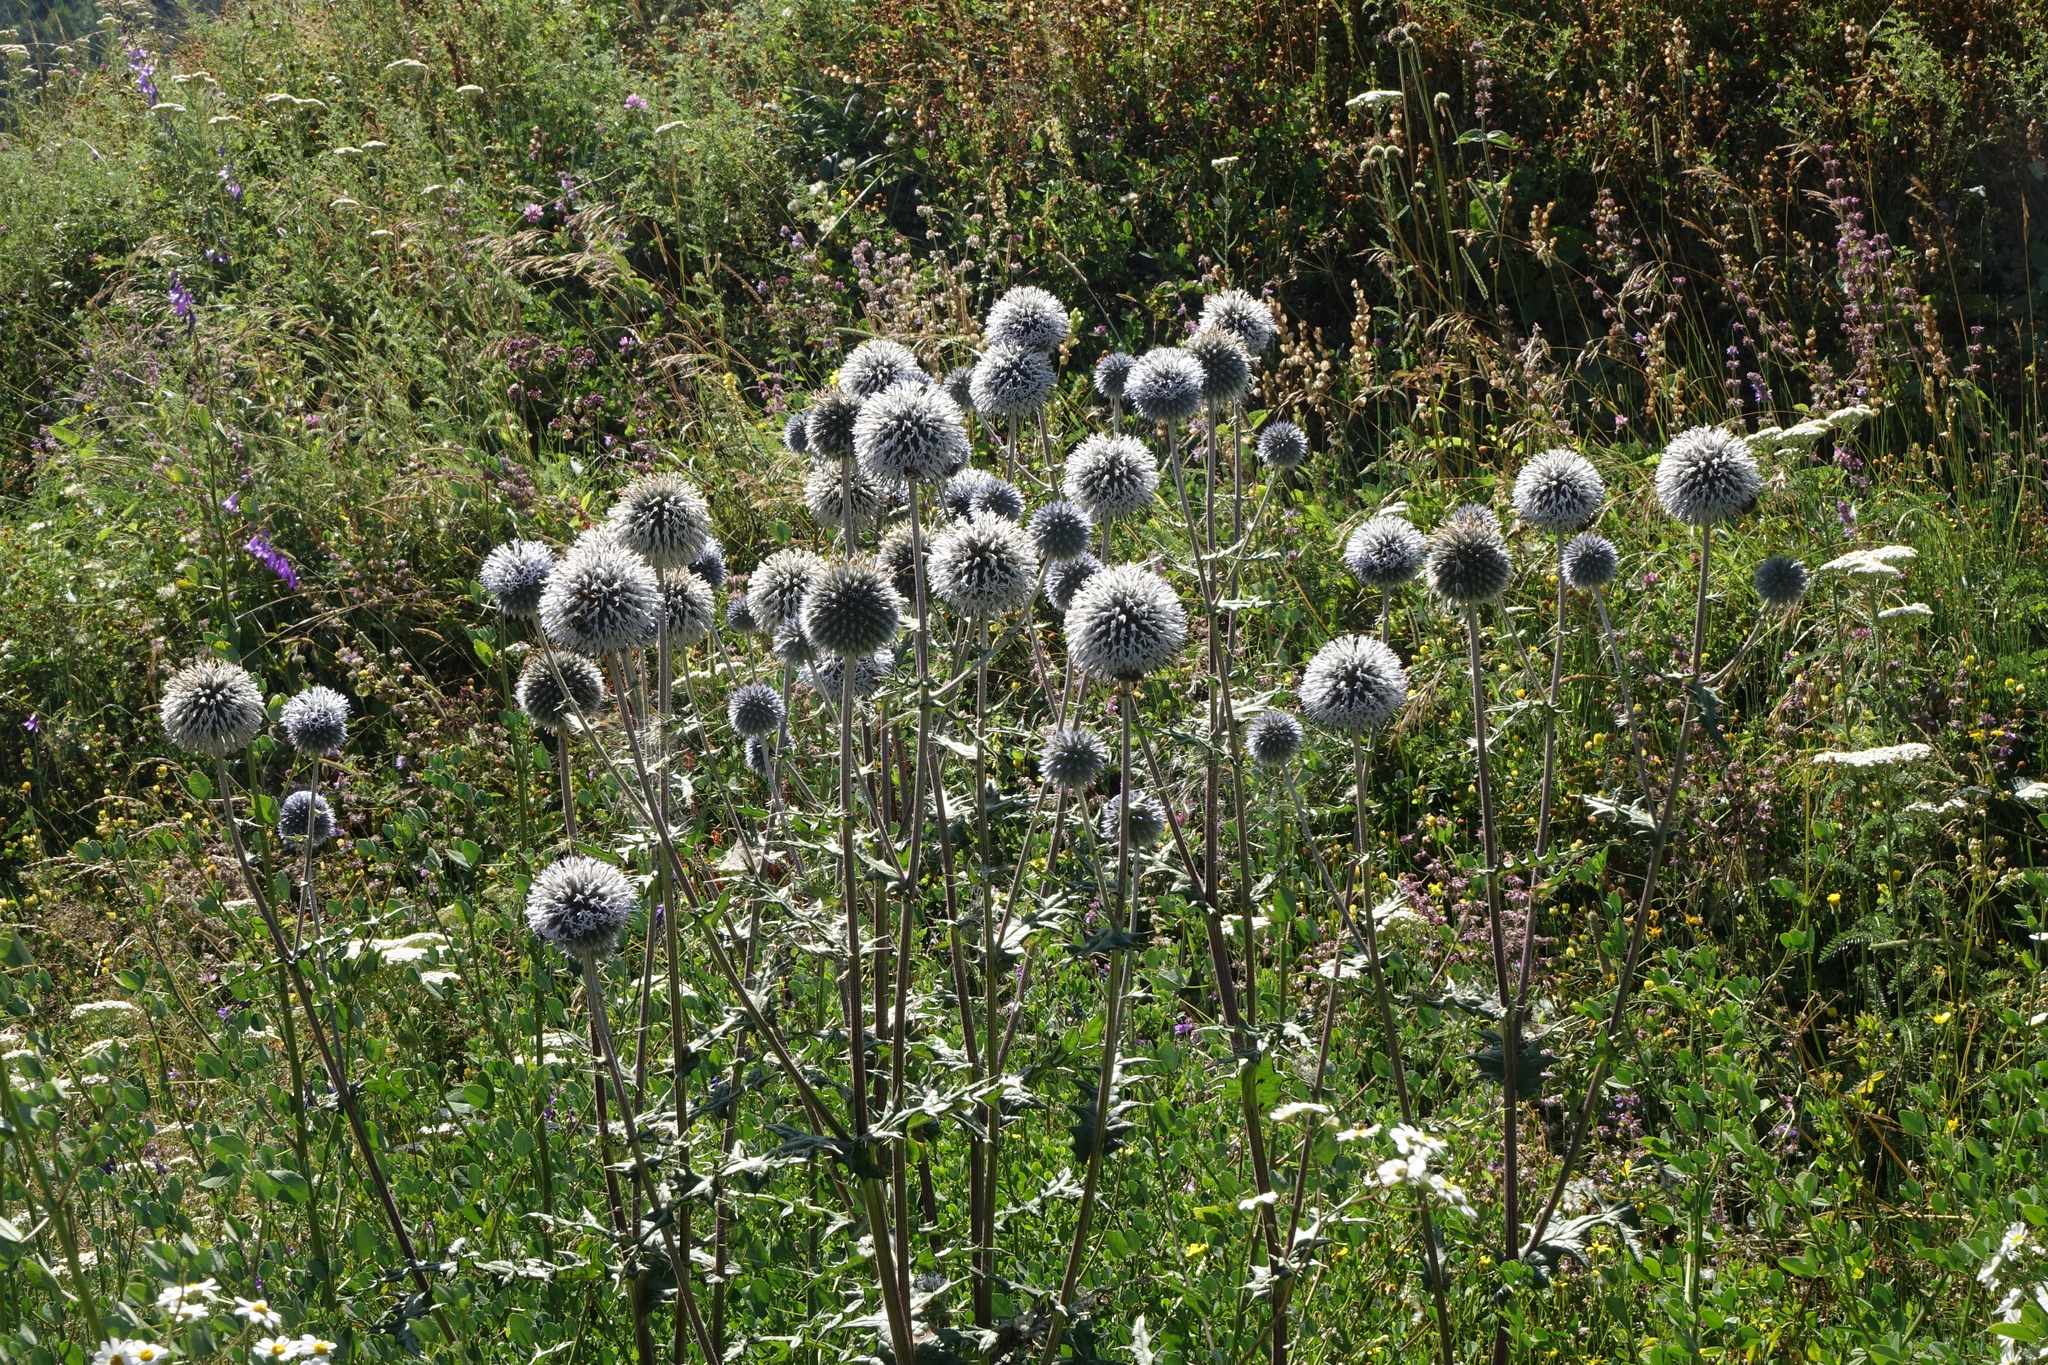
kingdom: Plantae
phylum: Tracheophyta
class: Magnoliopsida
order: Asterales
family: Asteraceae
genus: Echinops
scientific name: Echinops sphaerocephalus
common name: Glandular globe-thistle
